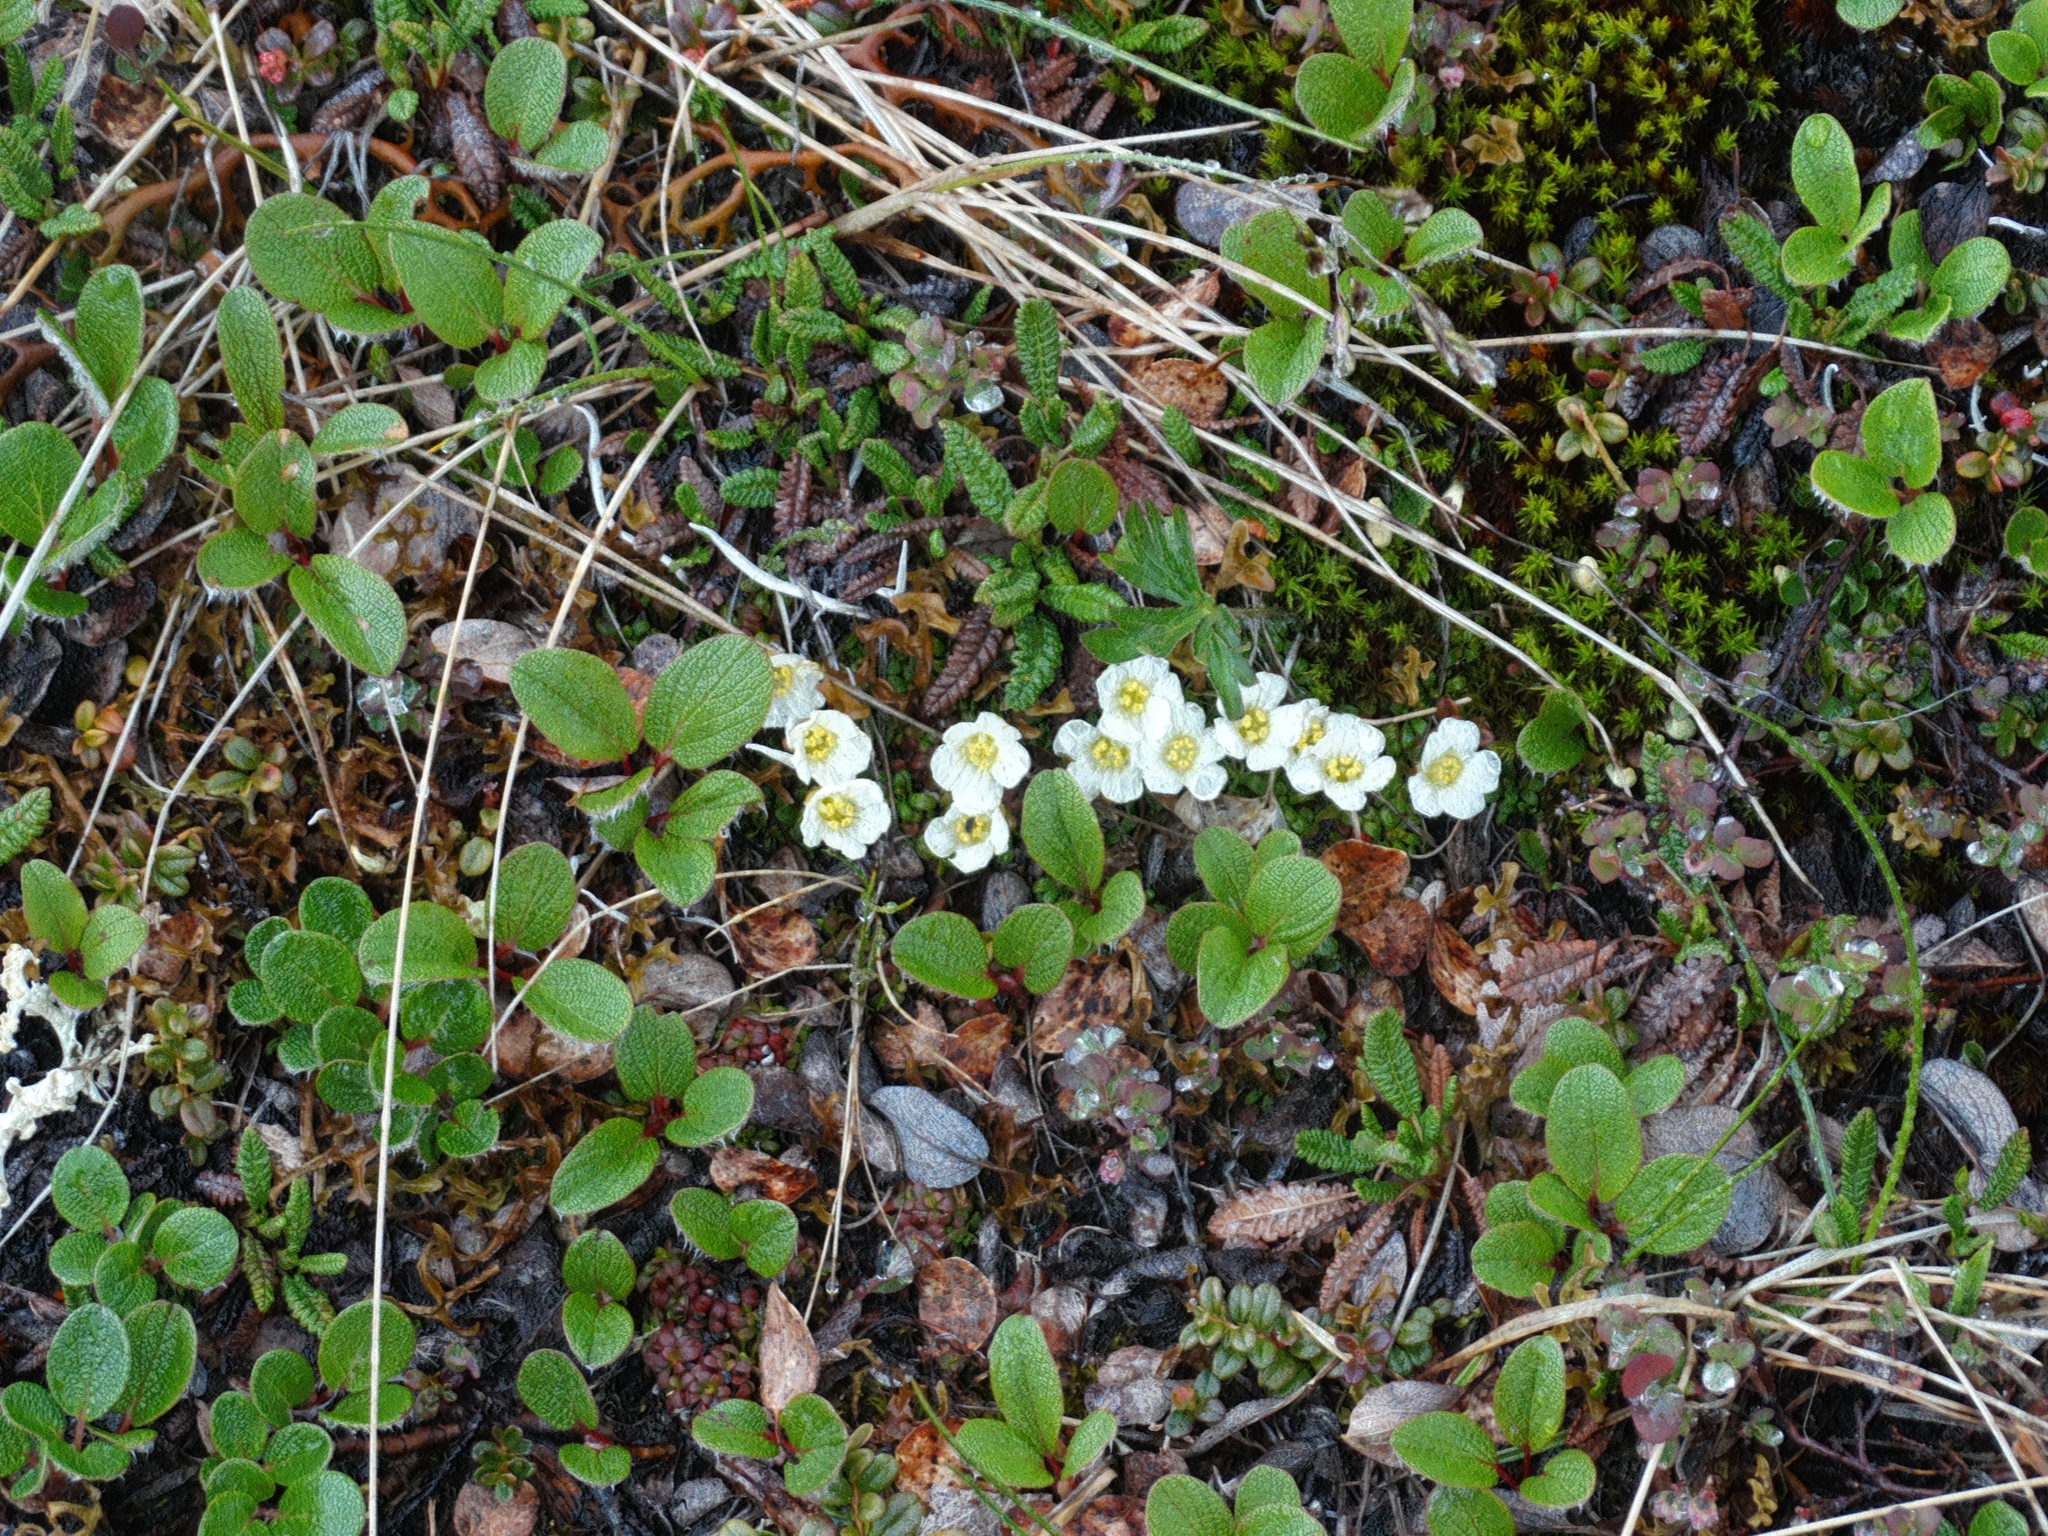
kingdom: Plantae
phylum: Tracheophyta
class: Magnoliopsida
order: Ericales
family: Diapensiaceae
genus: Diapensia
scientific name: Diapensia obovata
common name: Alaska diapensia
